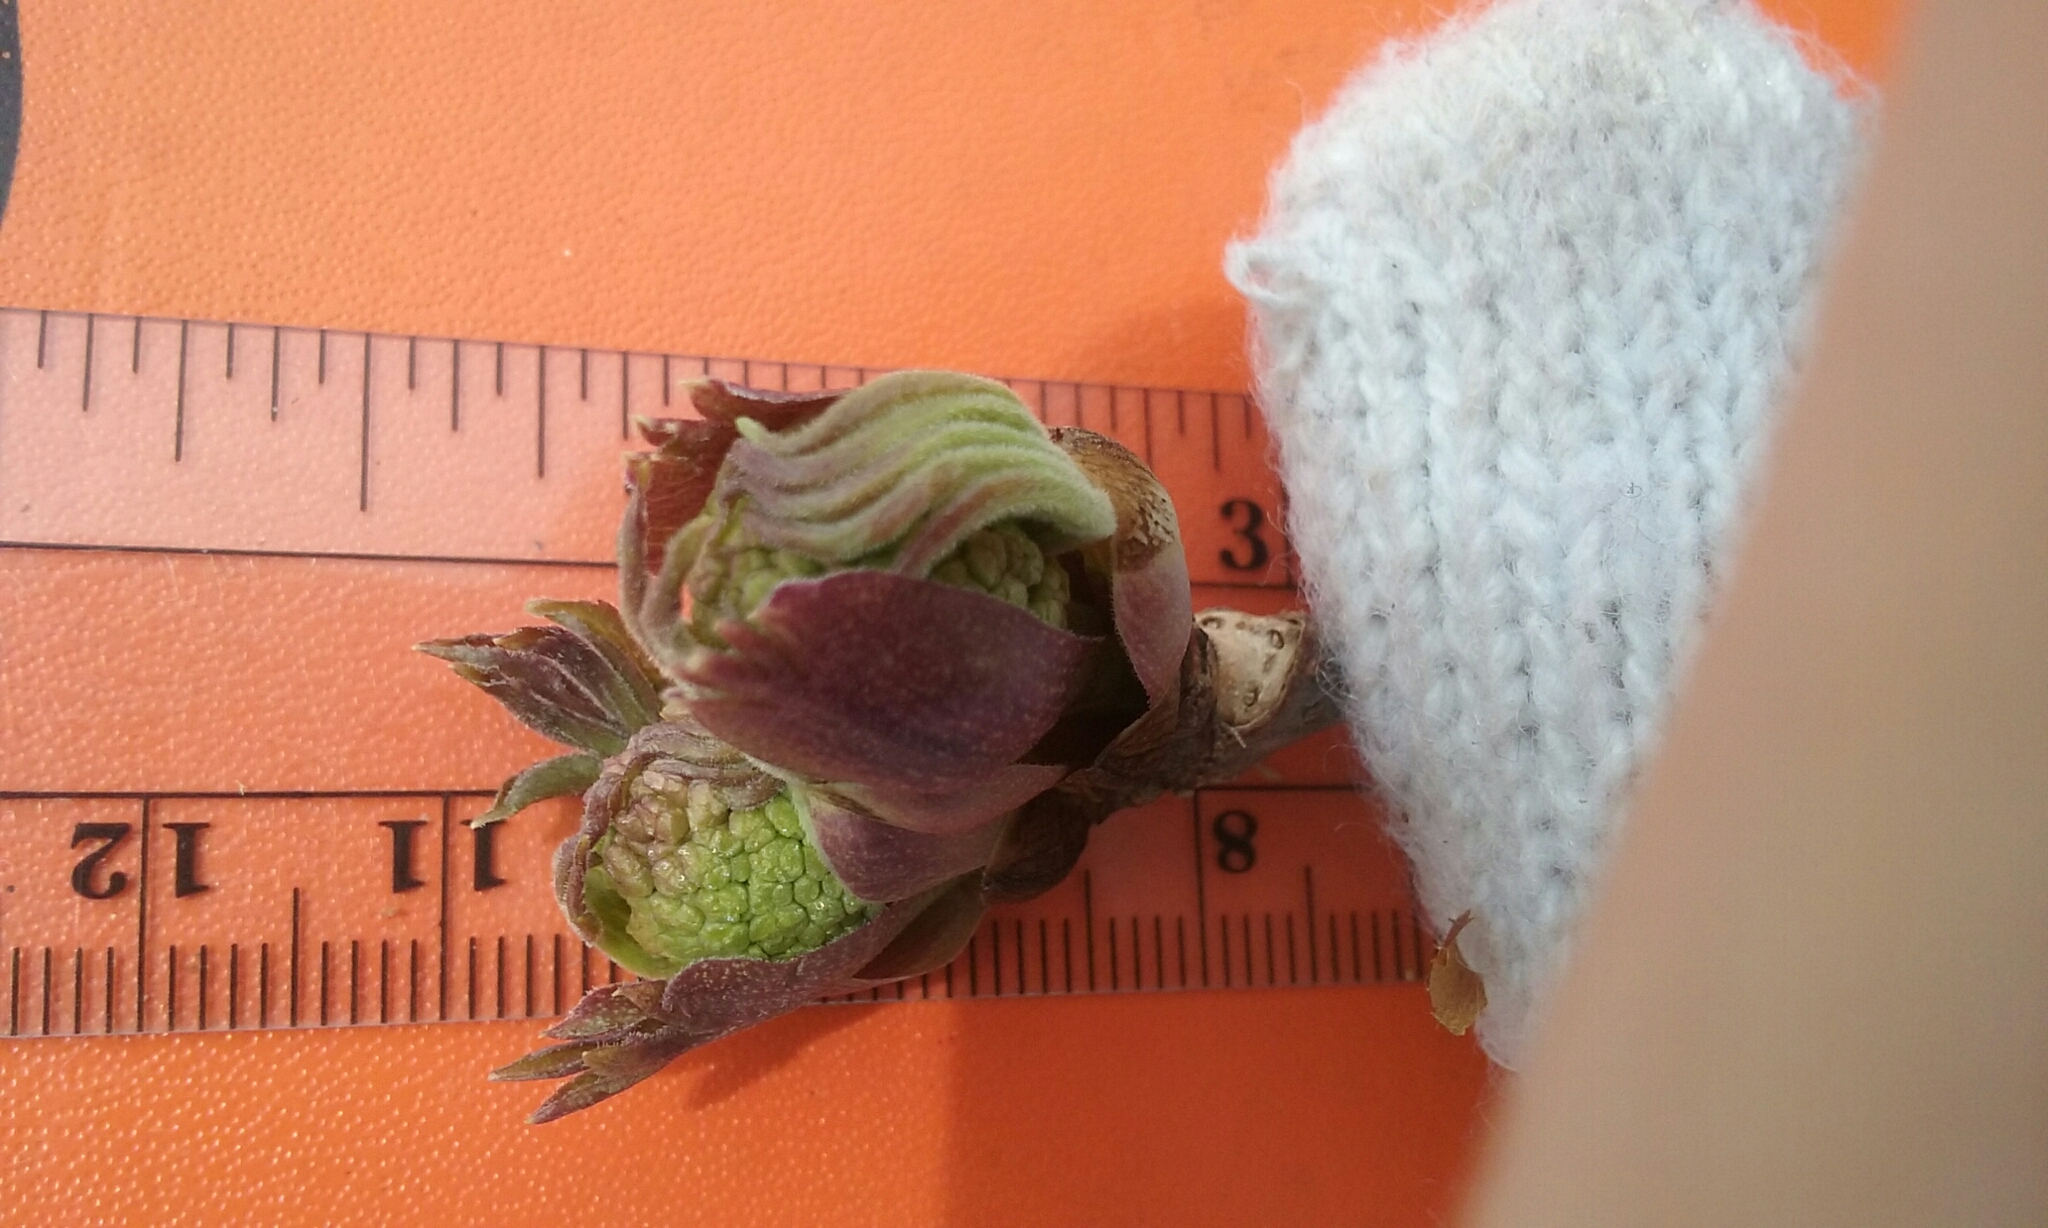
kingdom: Plantae
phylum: Tracheophyta
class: Magnoliopsida
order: Dipsacales
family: Viburnaceae
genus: Sambucus
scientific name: Sambucus racemosa
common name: Red-berried elder
